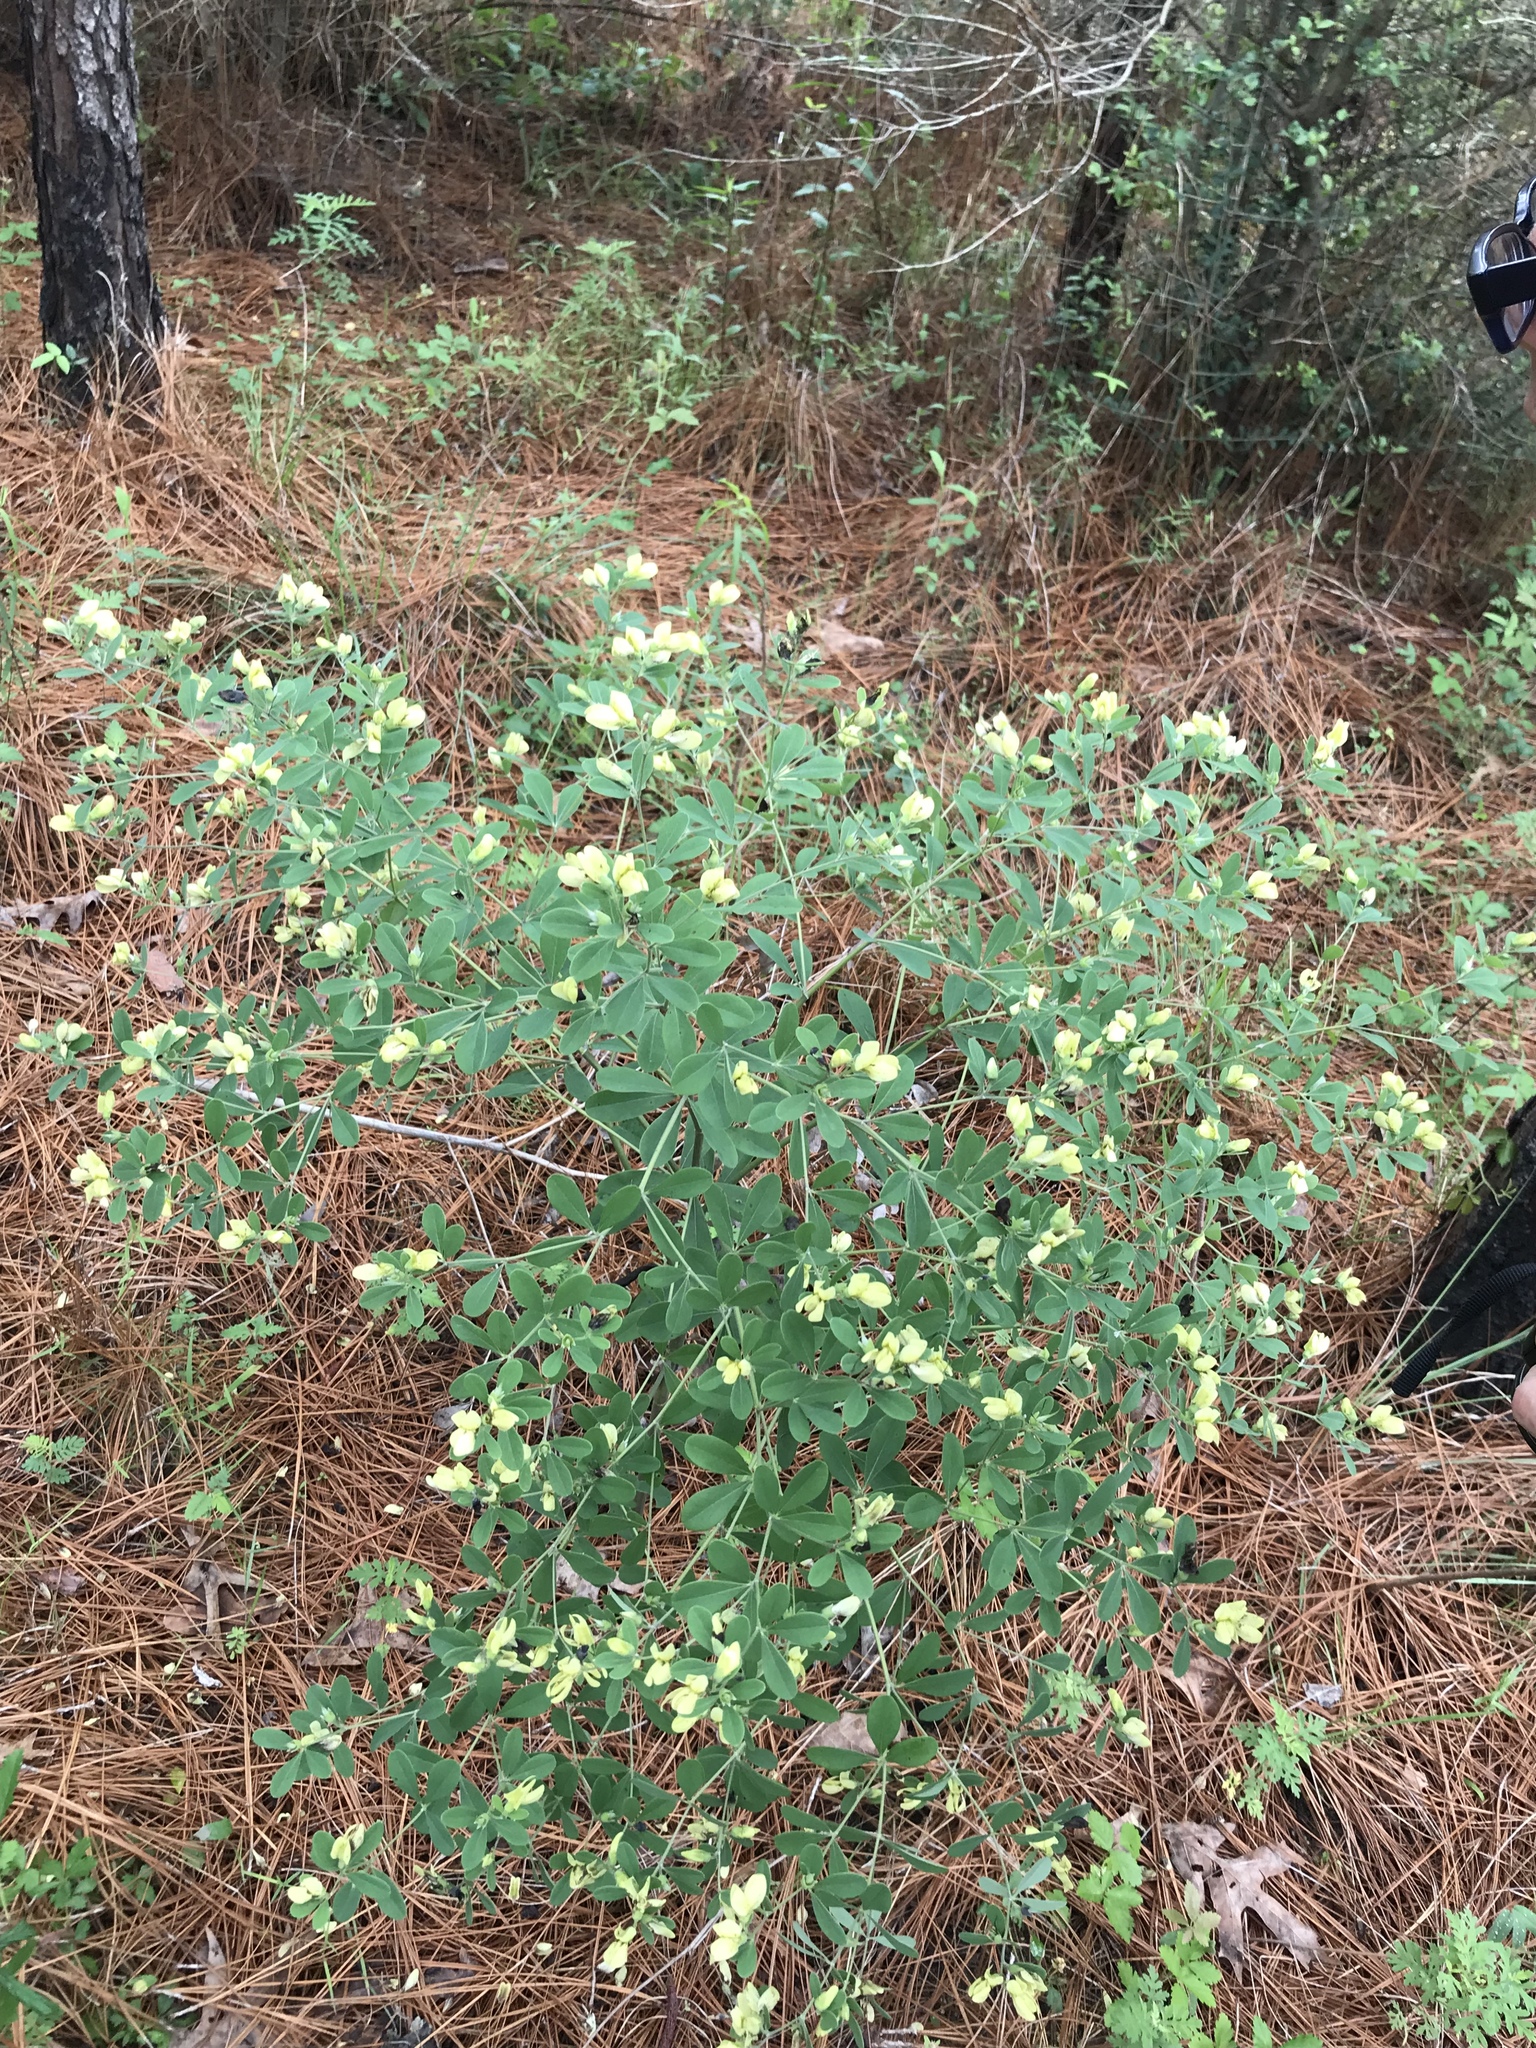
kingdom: Plantae
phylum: Tracheophyta
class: Magnoliopsida
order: Fabales
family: Fabaceae
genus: Baptisia
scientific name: Baptisia nuttalliana
